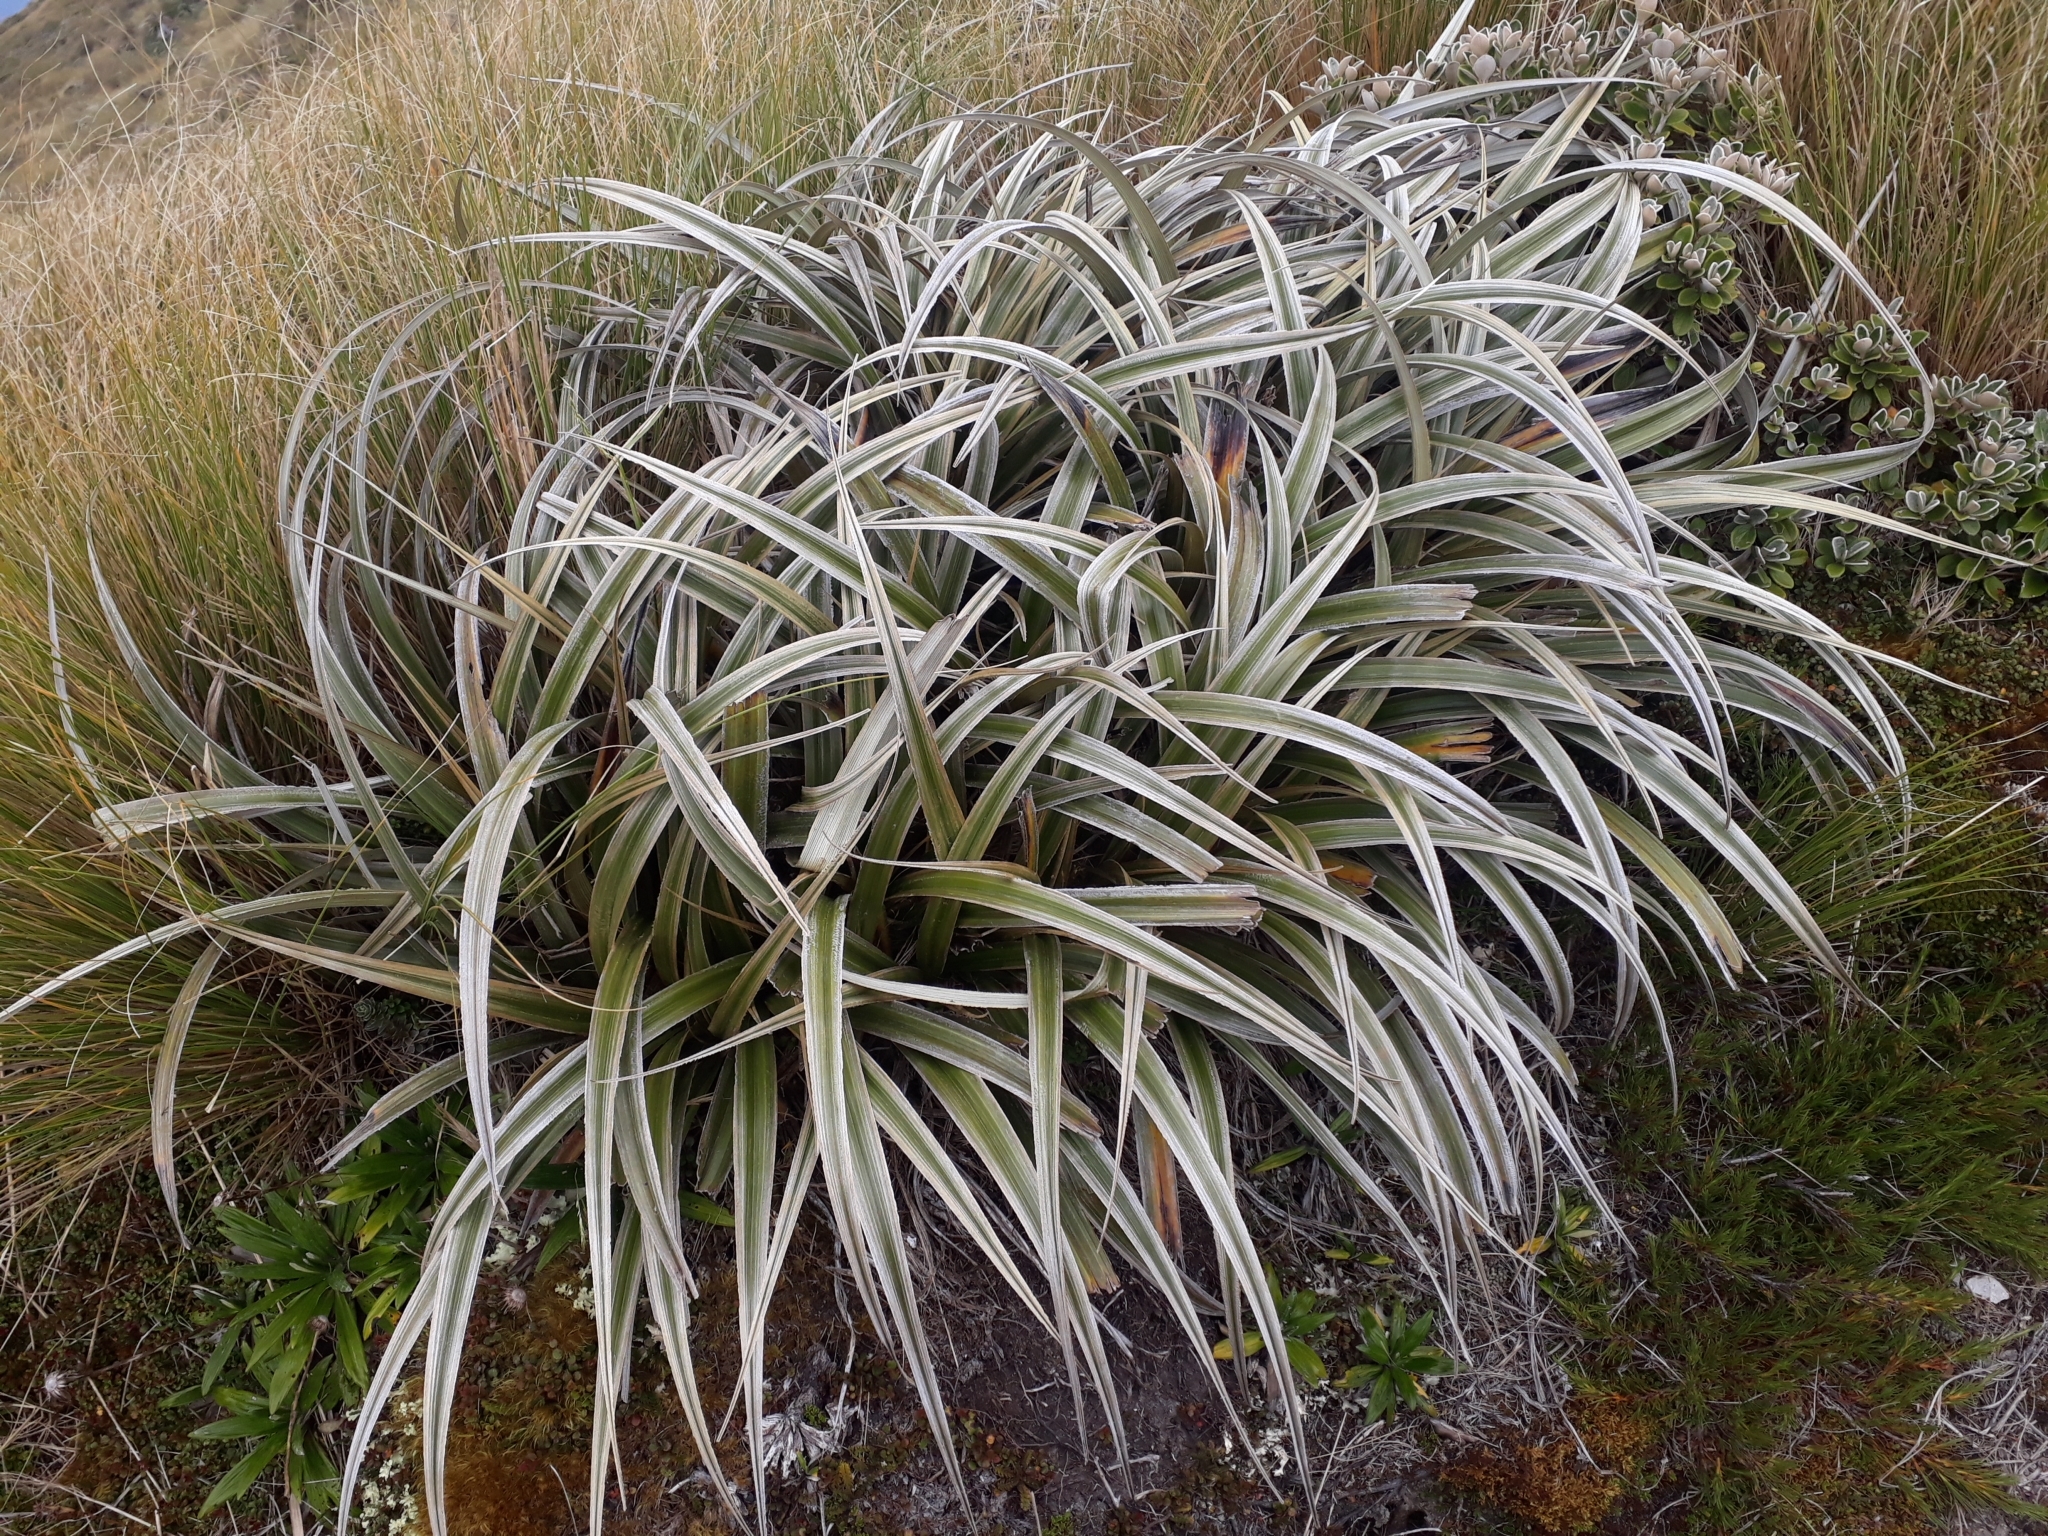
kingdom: Plantae
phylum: Tracheophyta
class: Liliopsida
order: Asparagales
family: Asteliaceae
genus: Astelia
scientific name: Astelia nervosa
